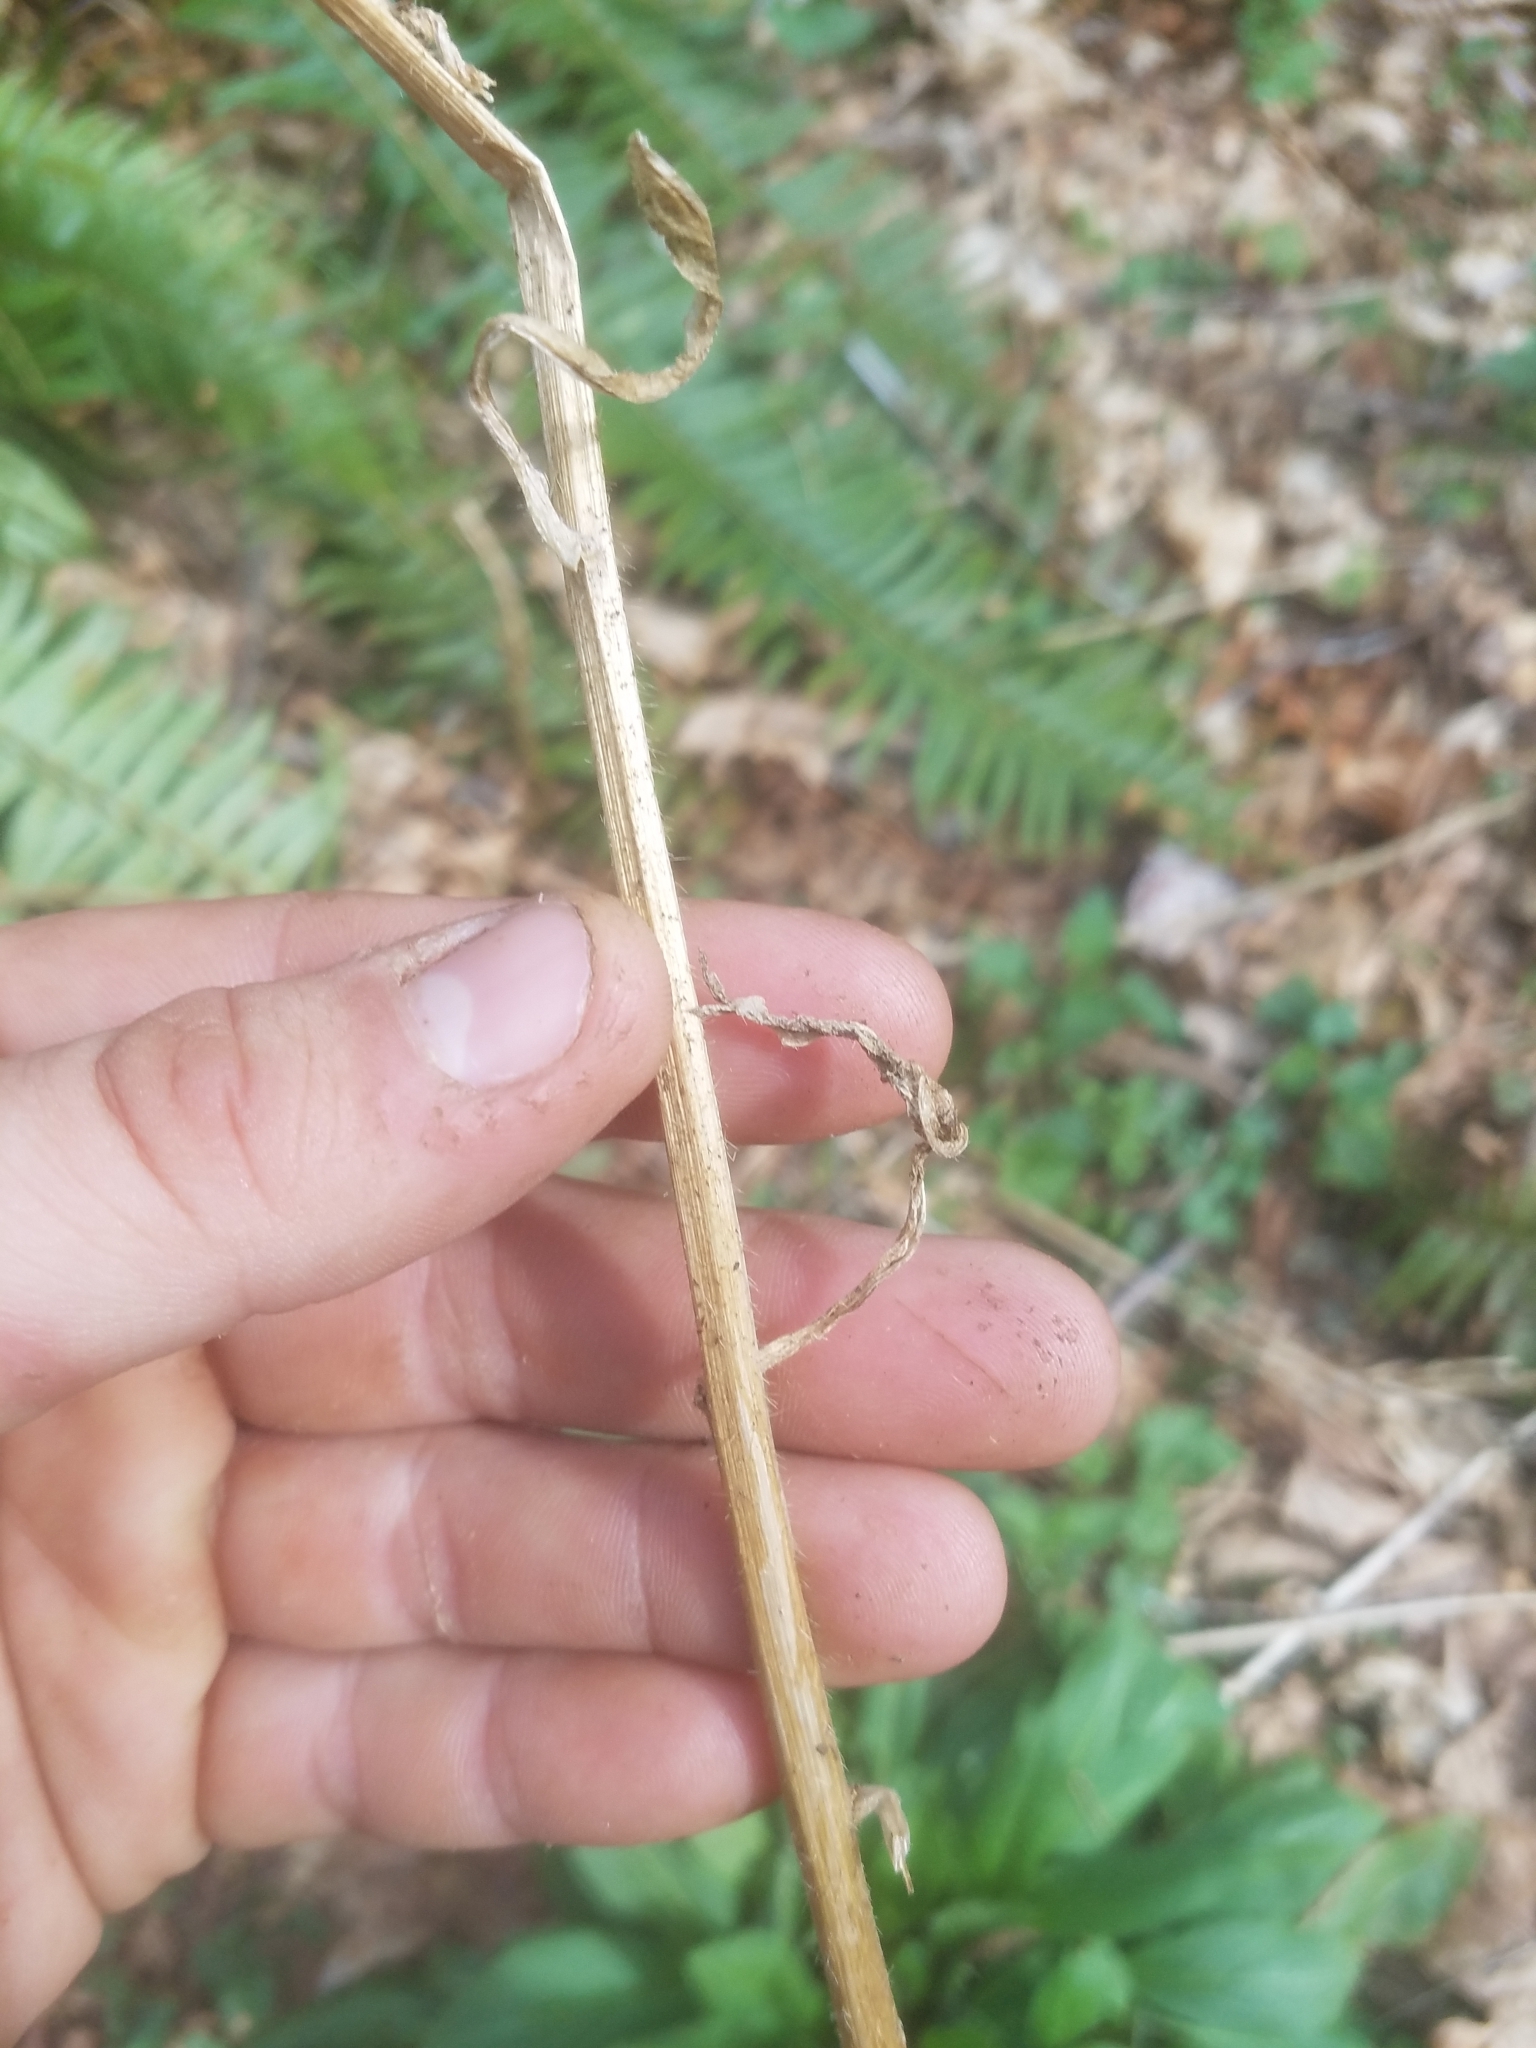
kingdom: Plantae
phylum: Tracheophyta
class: Magnoliopsida
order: Brassicales
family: Brassicaceae
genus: Hesperis
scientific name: Hesperis matronalis
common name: Dame's-violet
